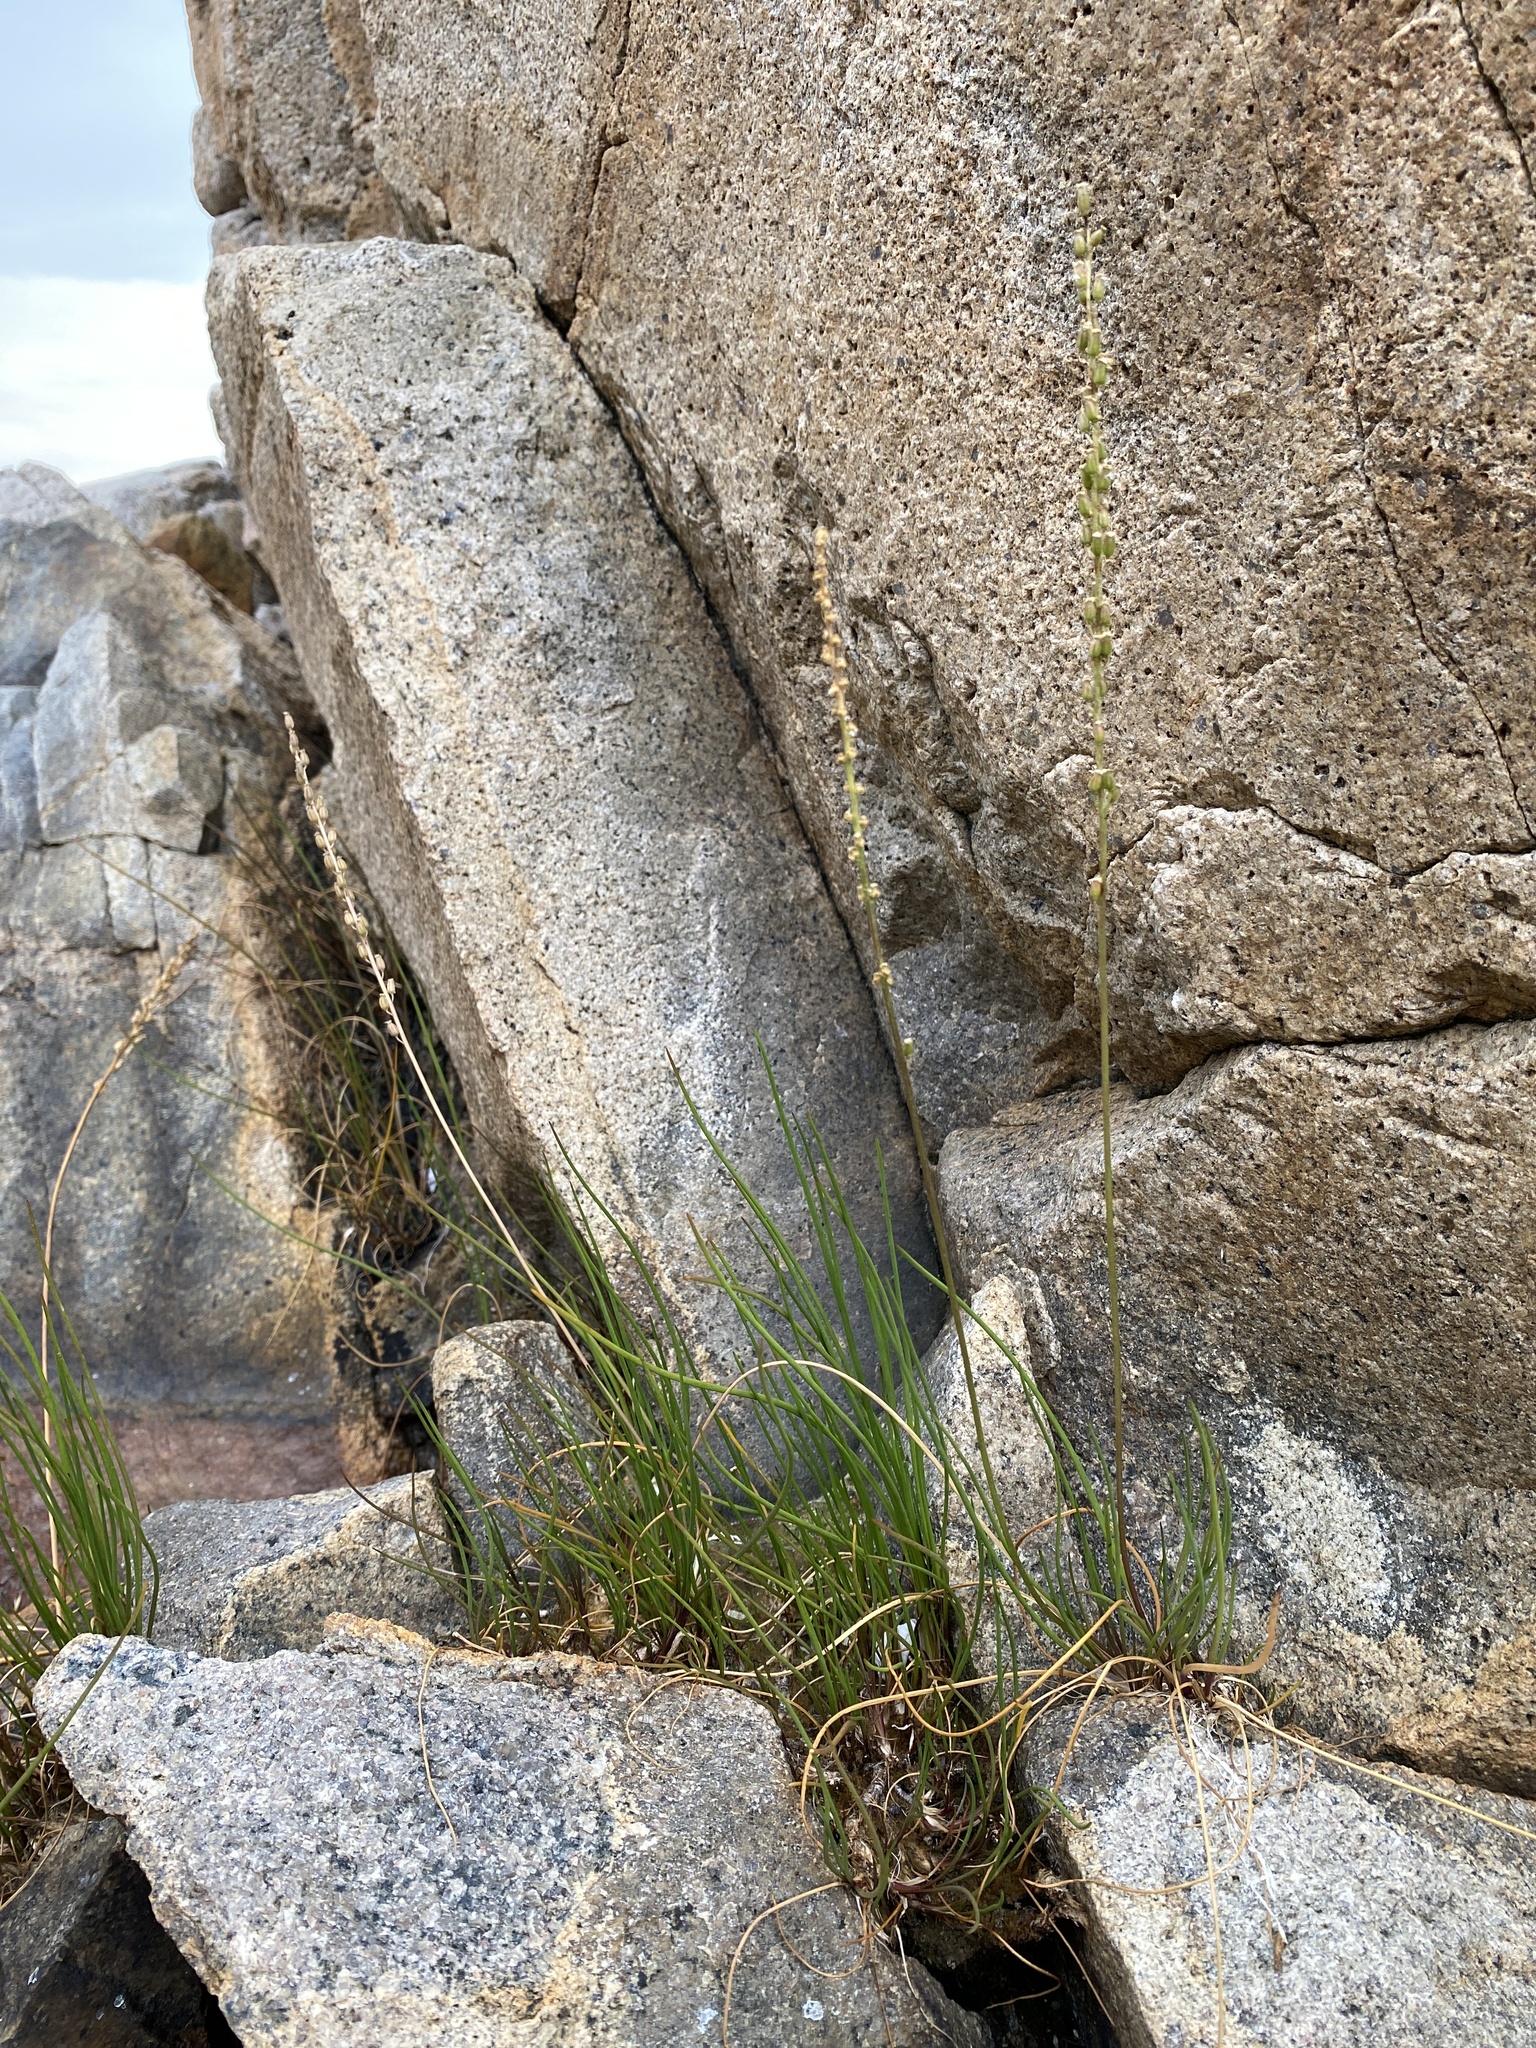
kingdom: Plantae
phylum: Tracheophyta
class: Liliopsida
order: Alismatales
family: Juncaginaceae
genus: Triglochin
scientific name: Triglochin maritima
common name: Sea arrowgrass
